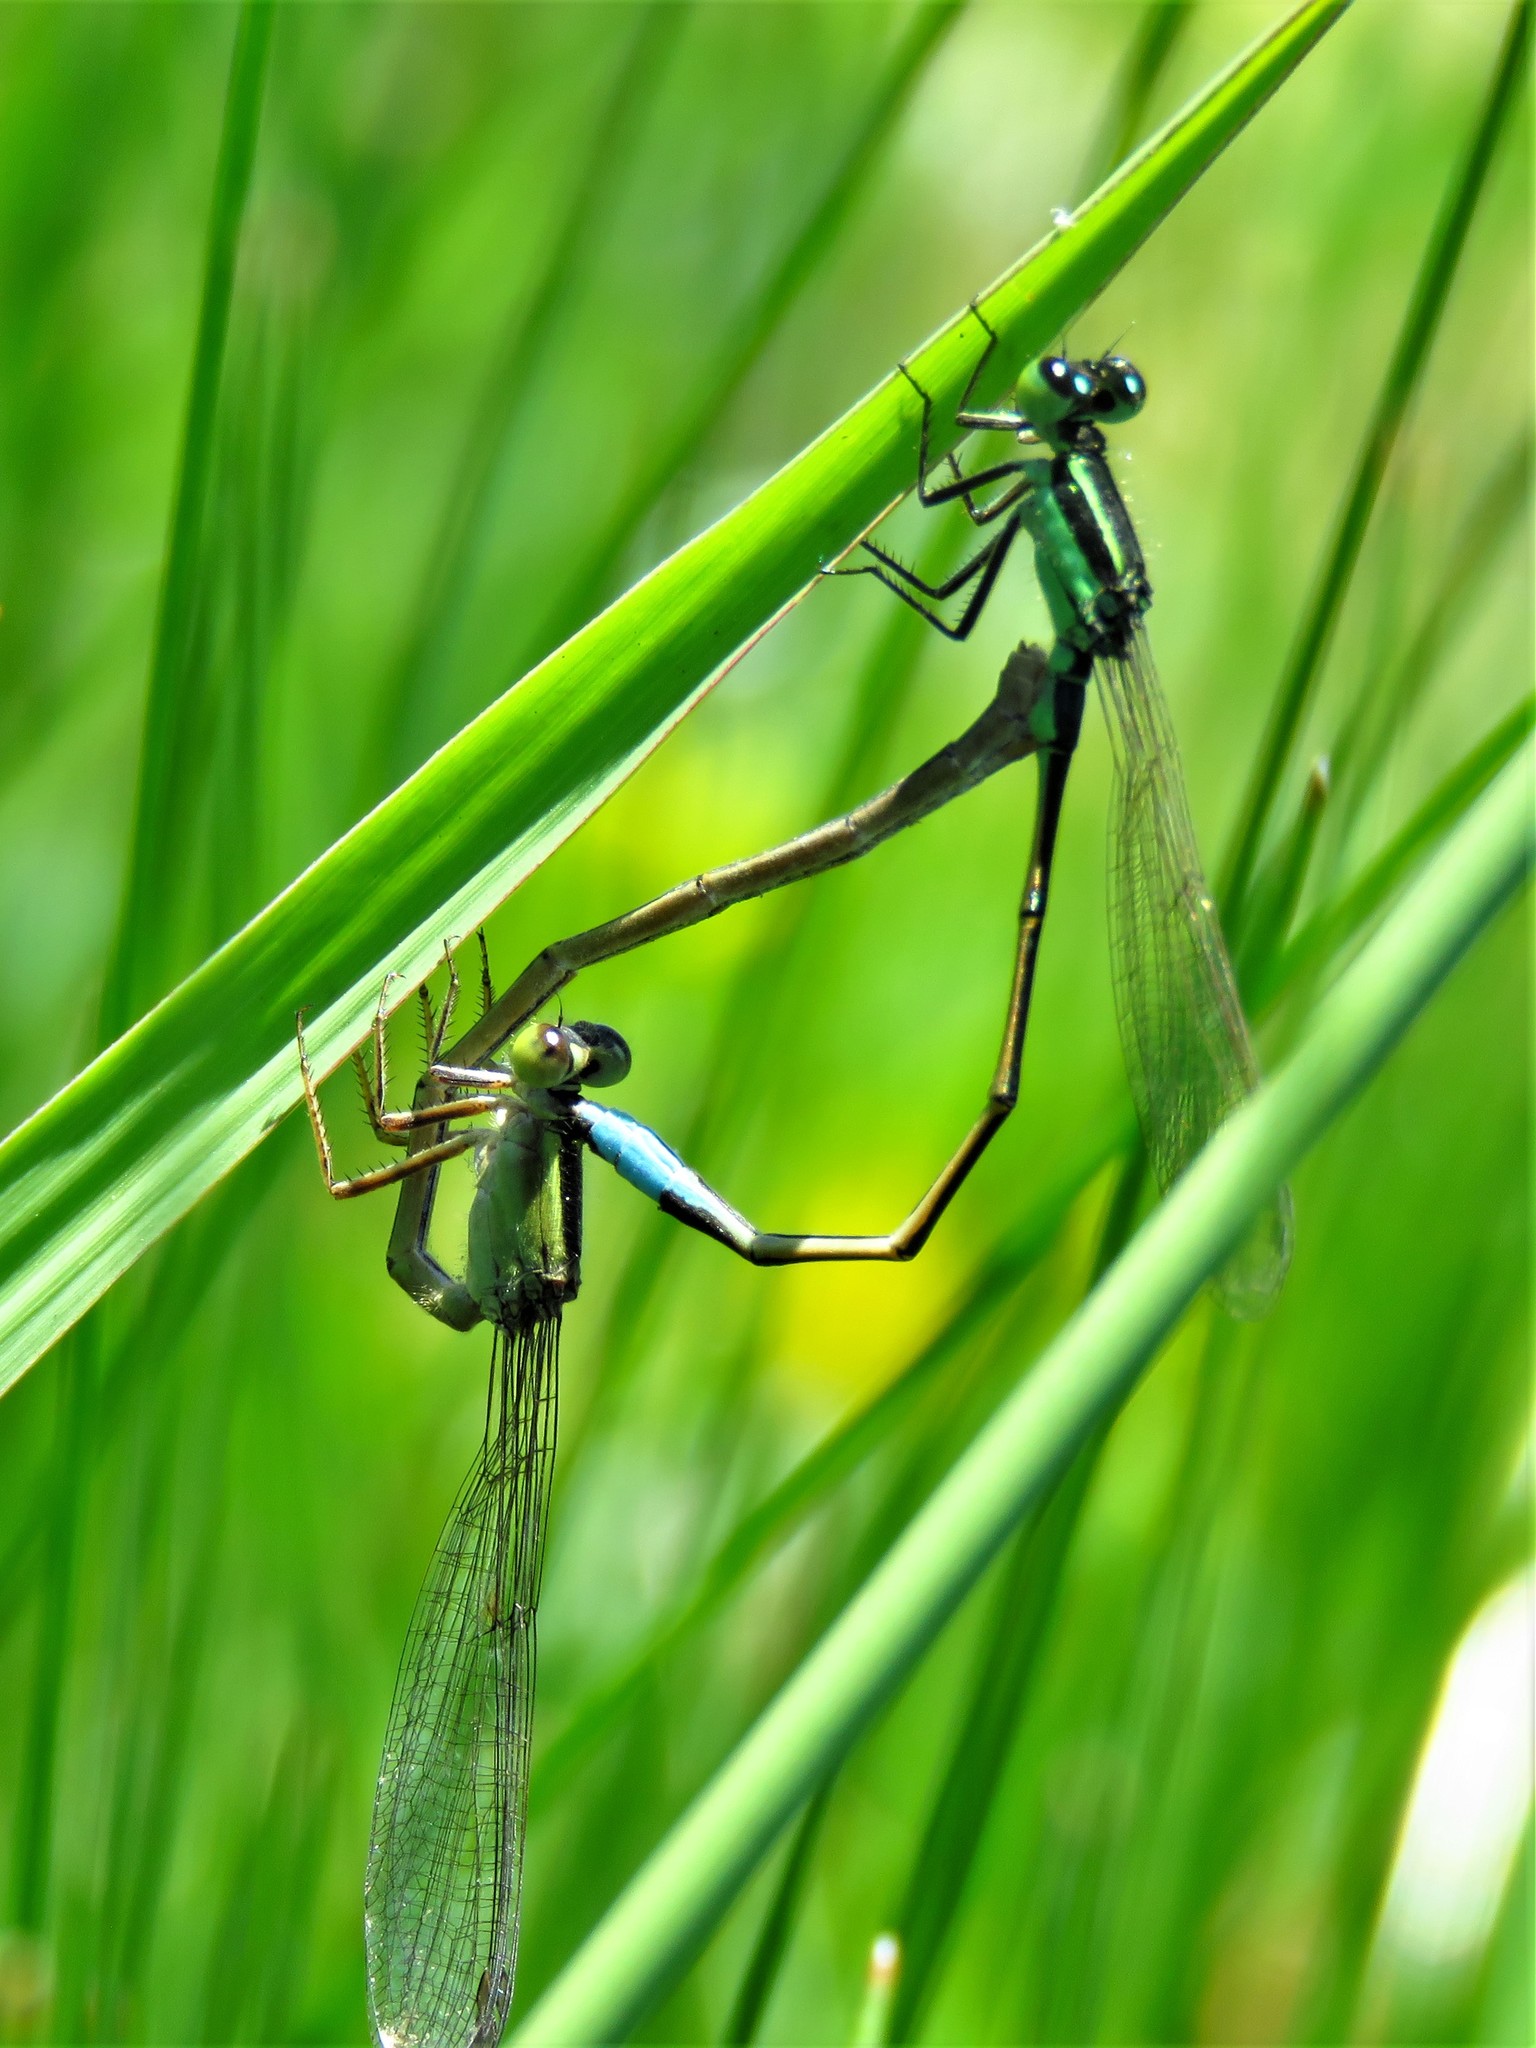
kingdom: Animalia
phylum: Arthropoda
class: Insecta
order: Odonata
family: Coenagrionidae
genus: Ischnura
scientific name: Ischnura ramburii
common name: Rambur's forktail
